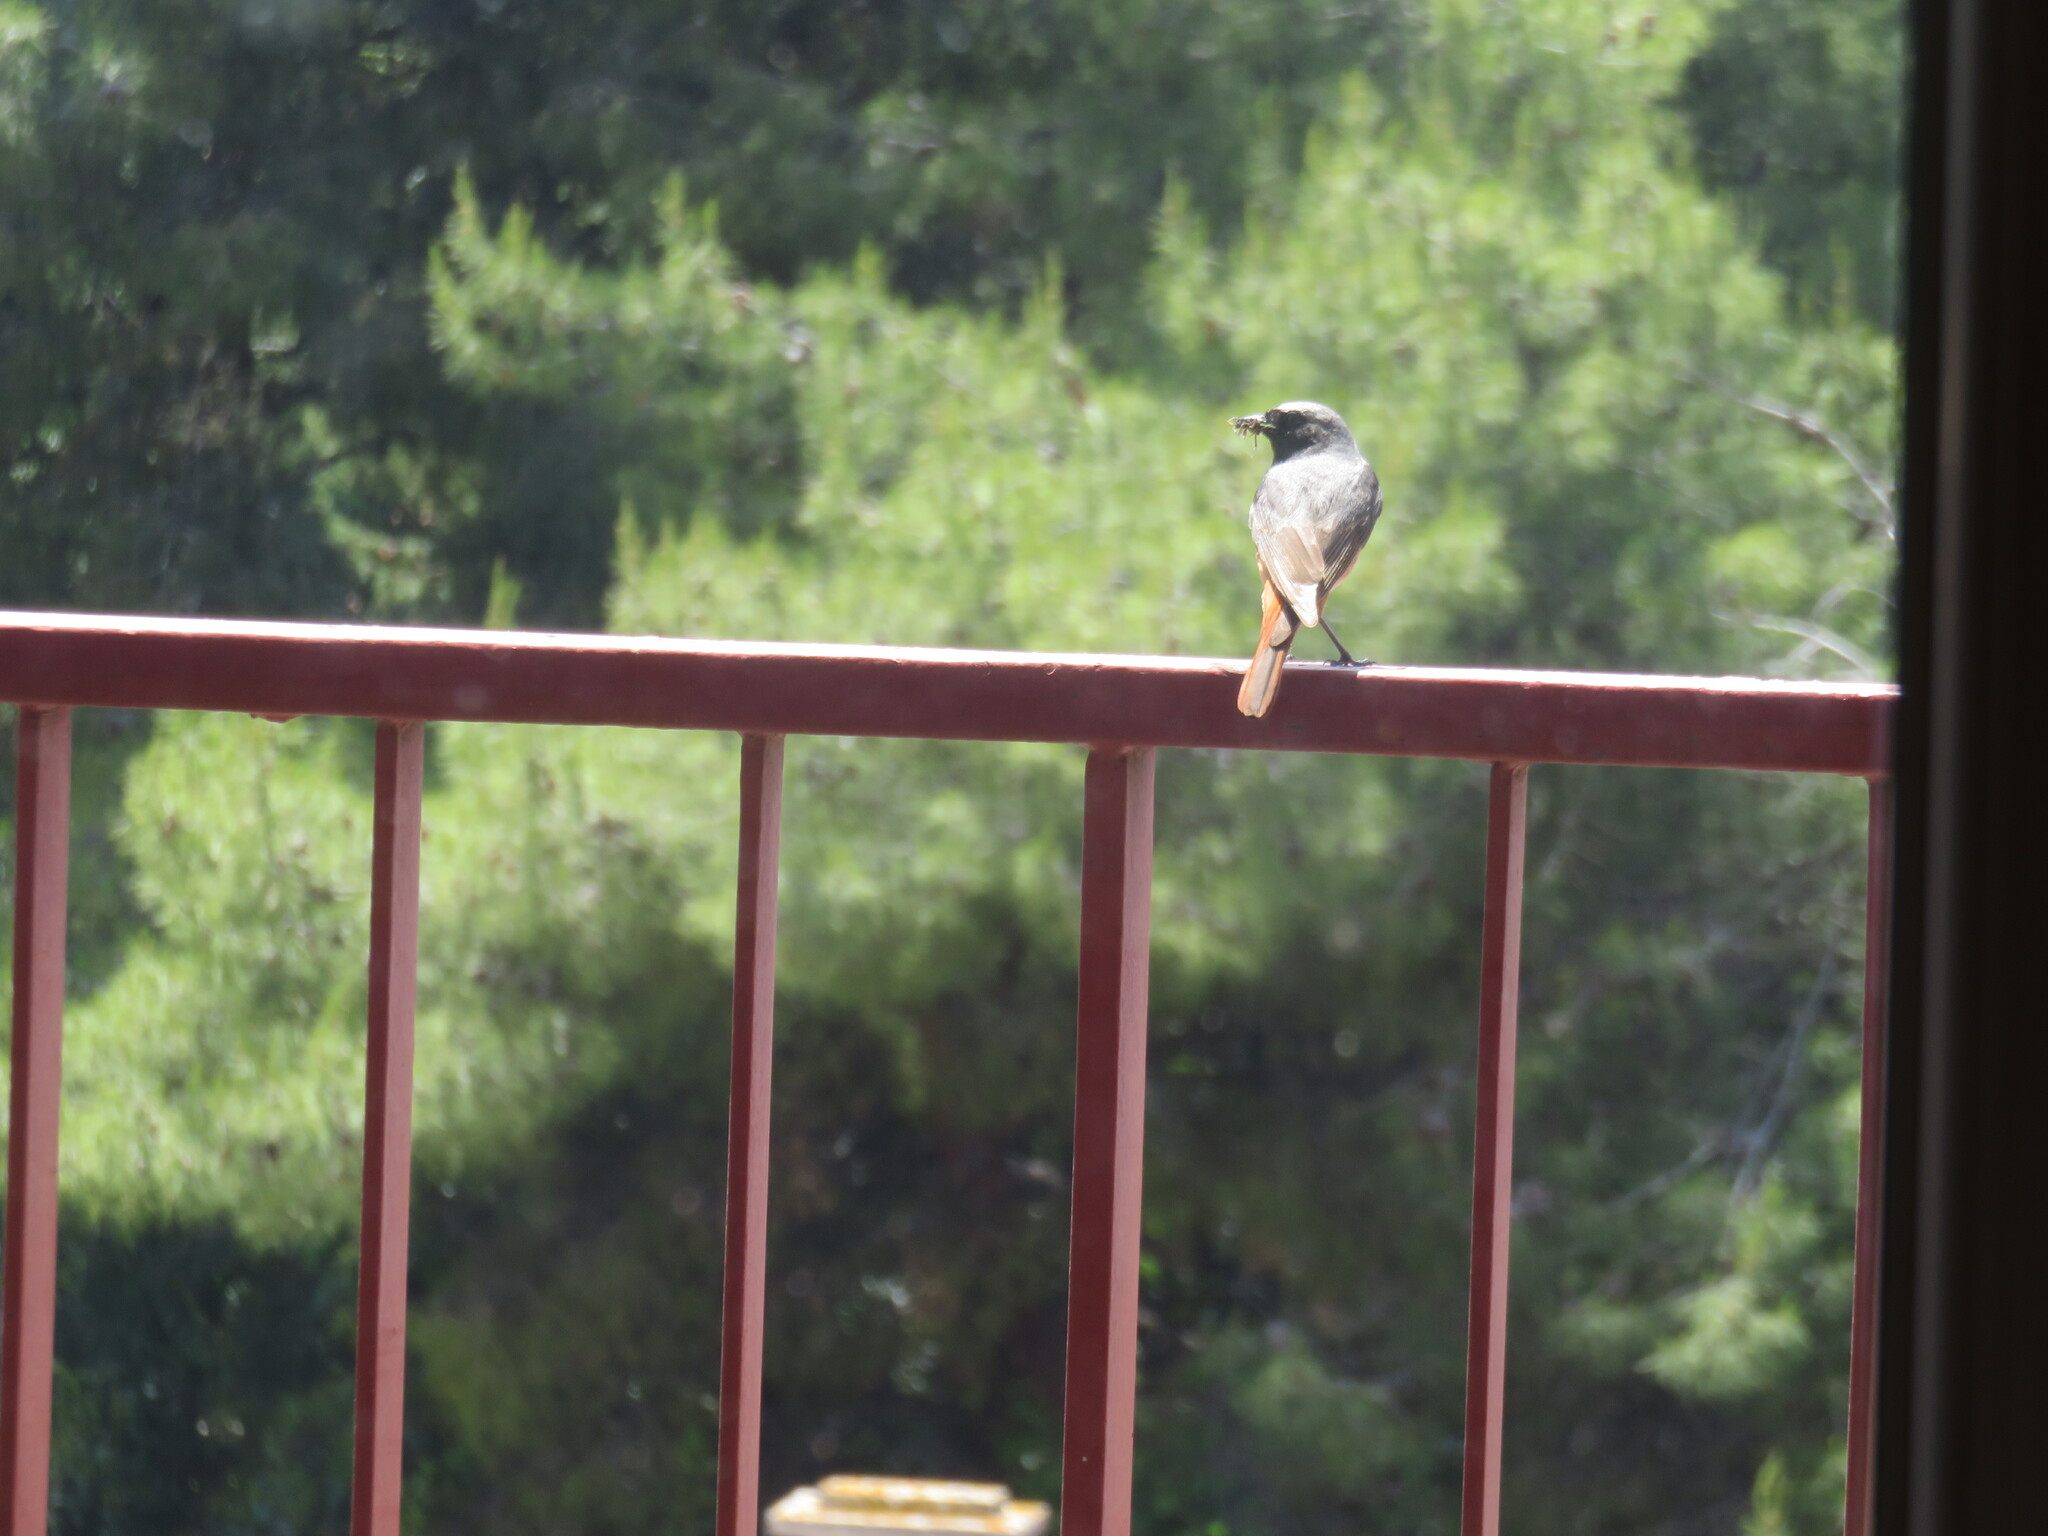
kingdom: Animalia
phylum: Chordata
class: Aves
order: Passeriformes
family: Muscicapidae
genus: Phoenicurus
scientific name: Phoenicurus phoenicurus
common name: Common redstart
